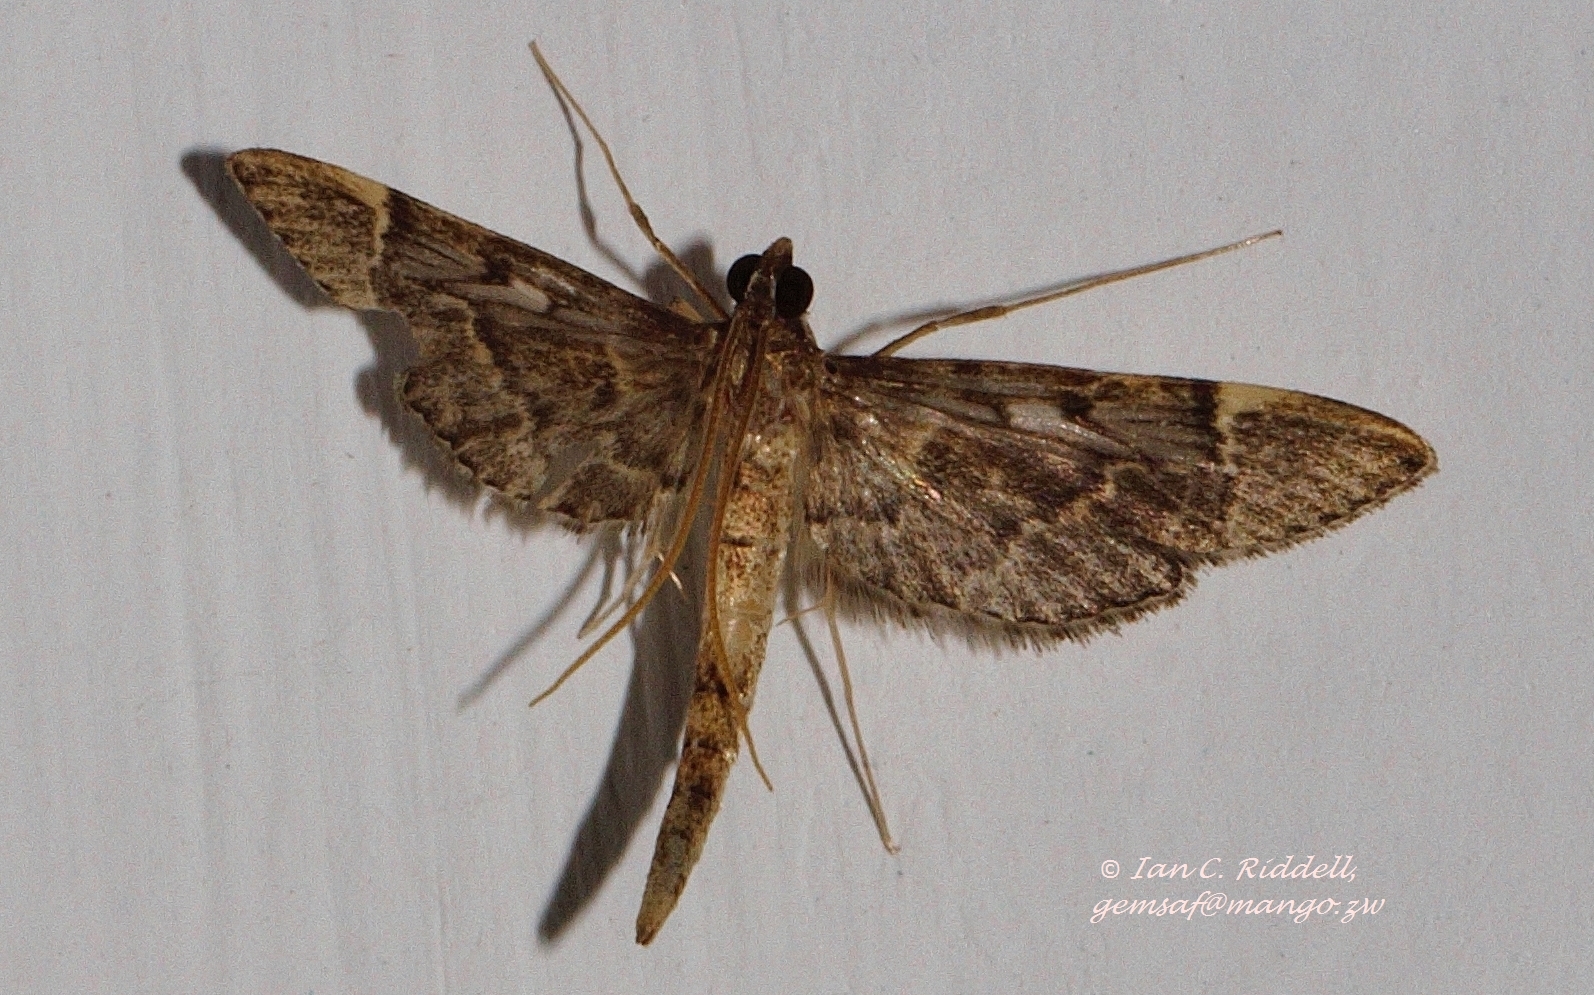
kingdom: Animalia
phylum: Arthropoda
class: Insecta
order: Lepidoptera
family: Crambidae
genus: Duponchelia
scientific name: Duponchelia lanceolalis
